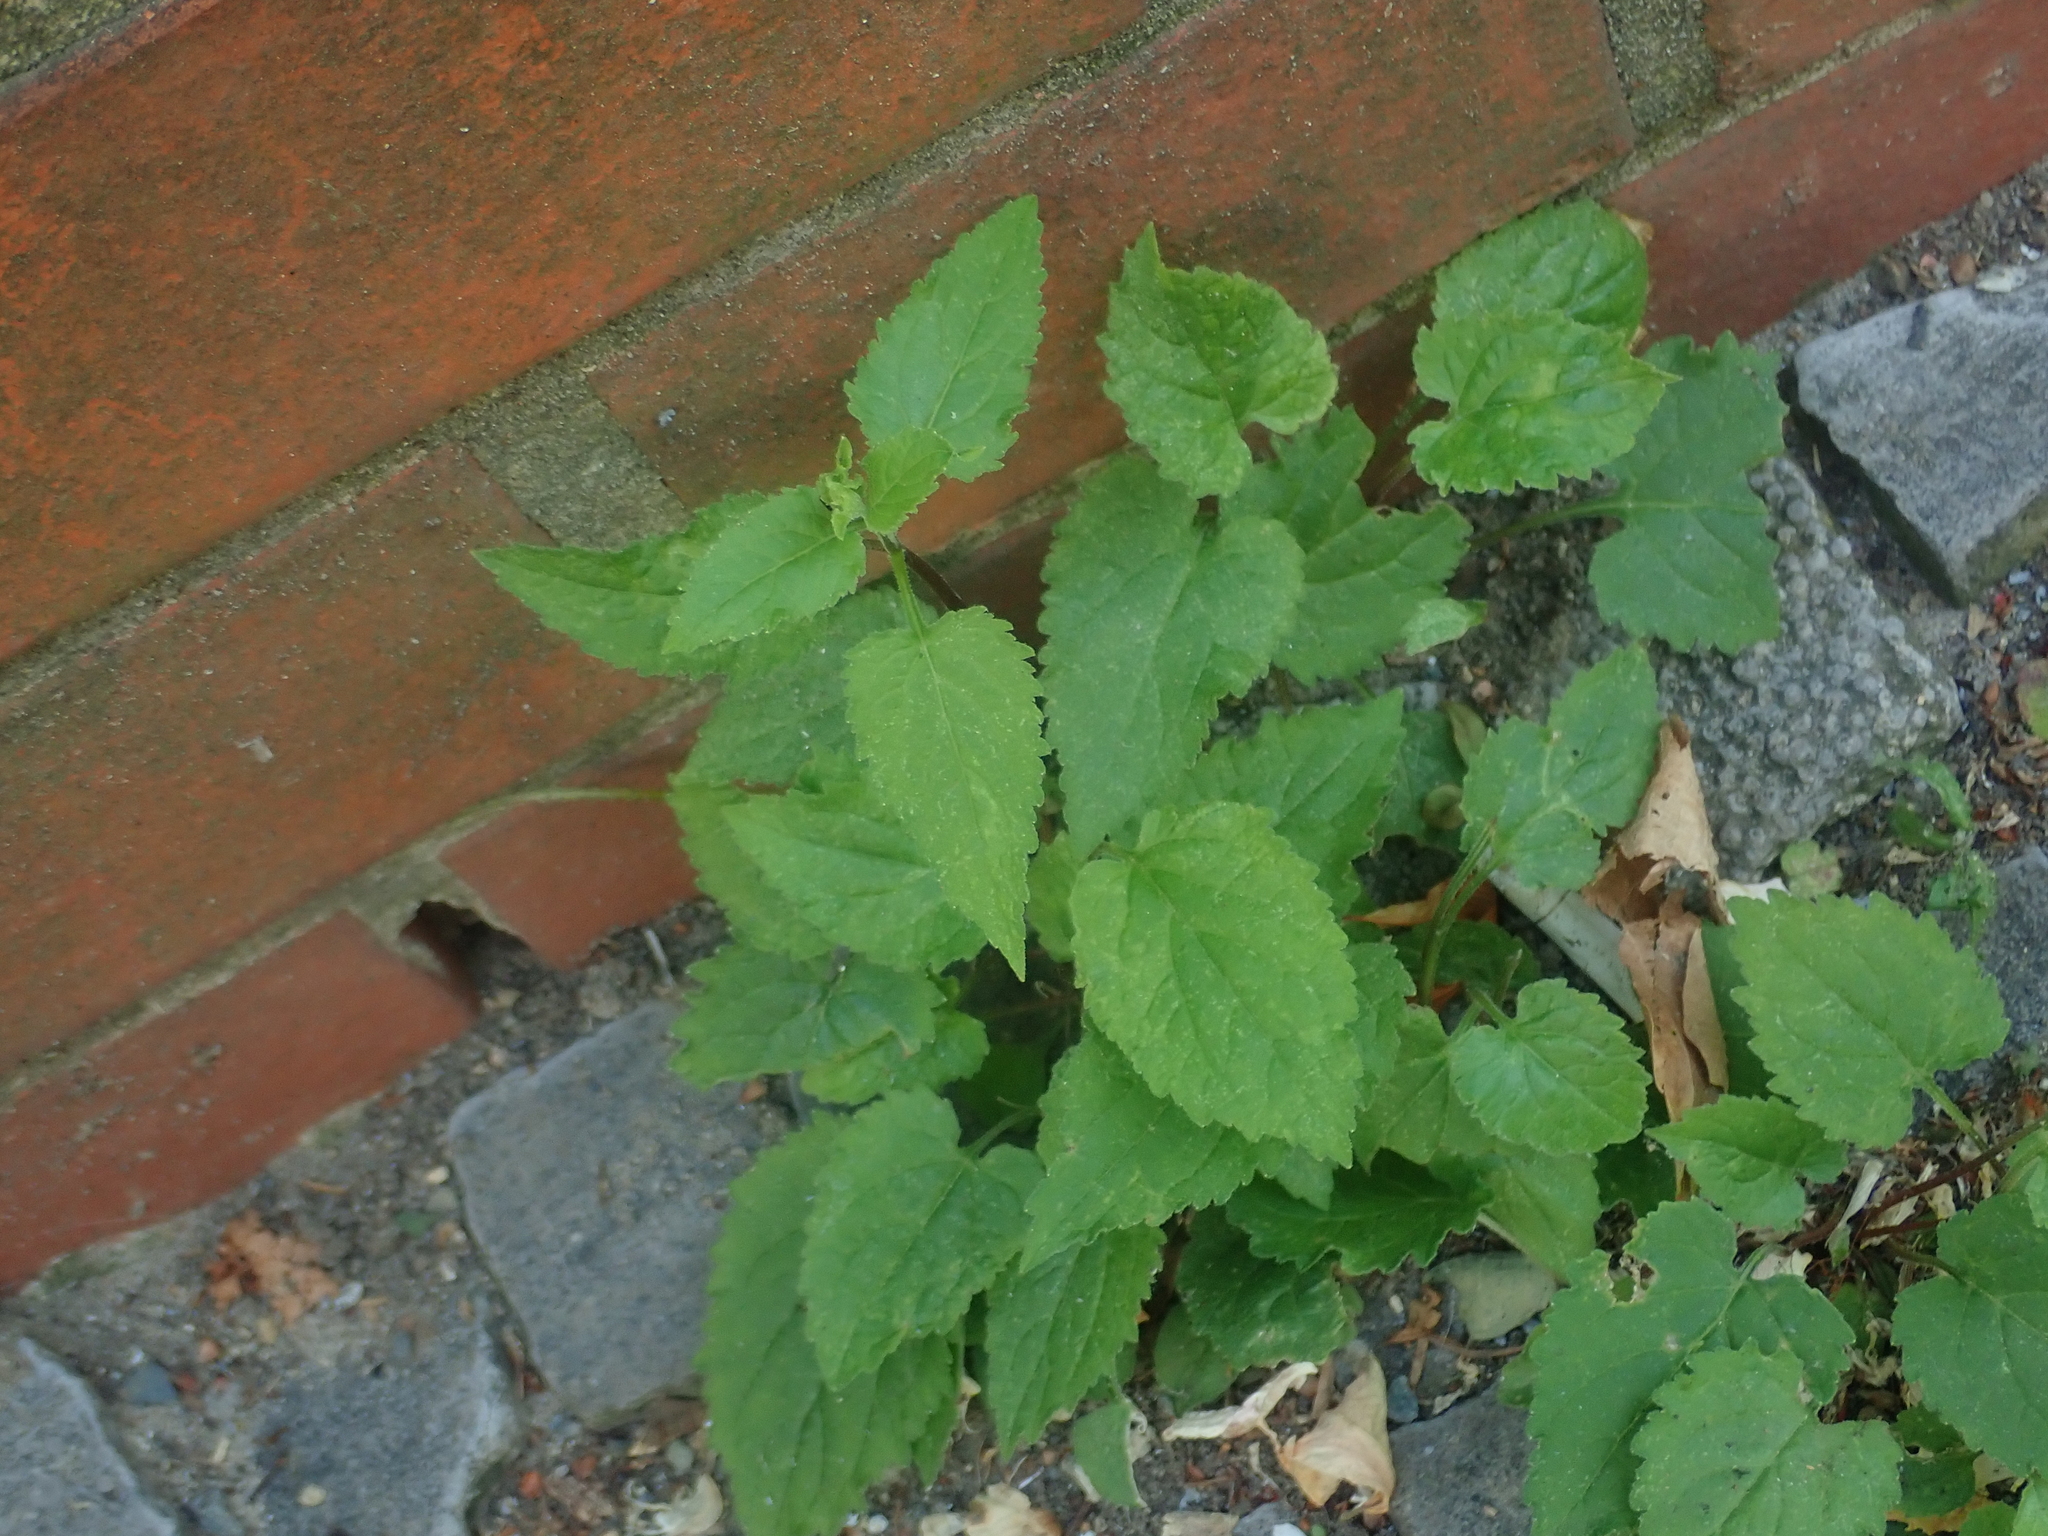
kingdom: Plantae
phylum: Tracheophyta
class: Magnoliopsida
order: Asterales
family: Campanulaceae
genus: Campanula
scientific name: Campanula rapunculoides
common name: Creeping bellflower
